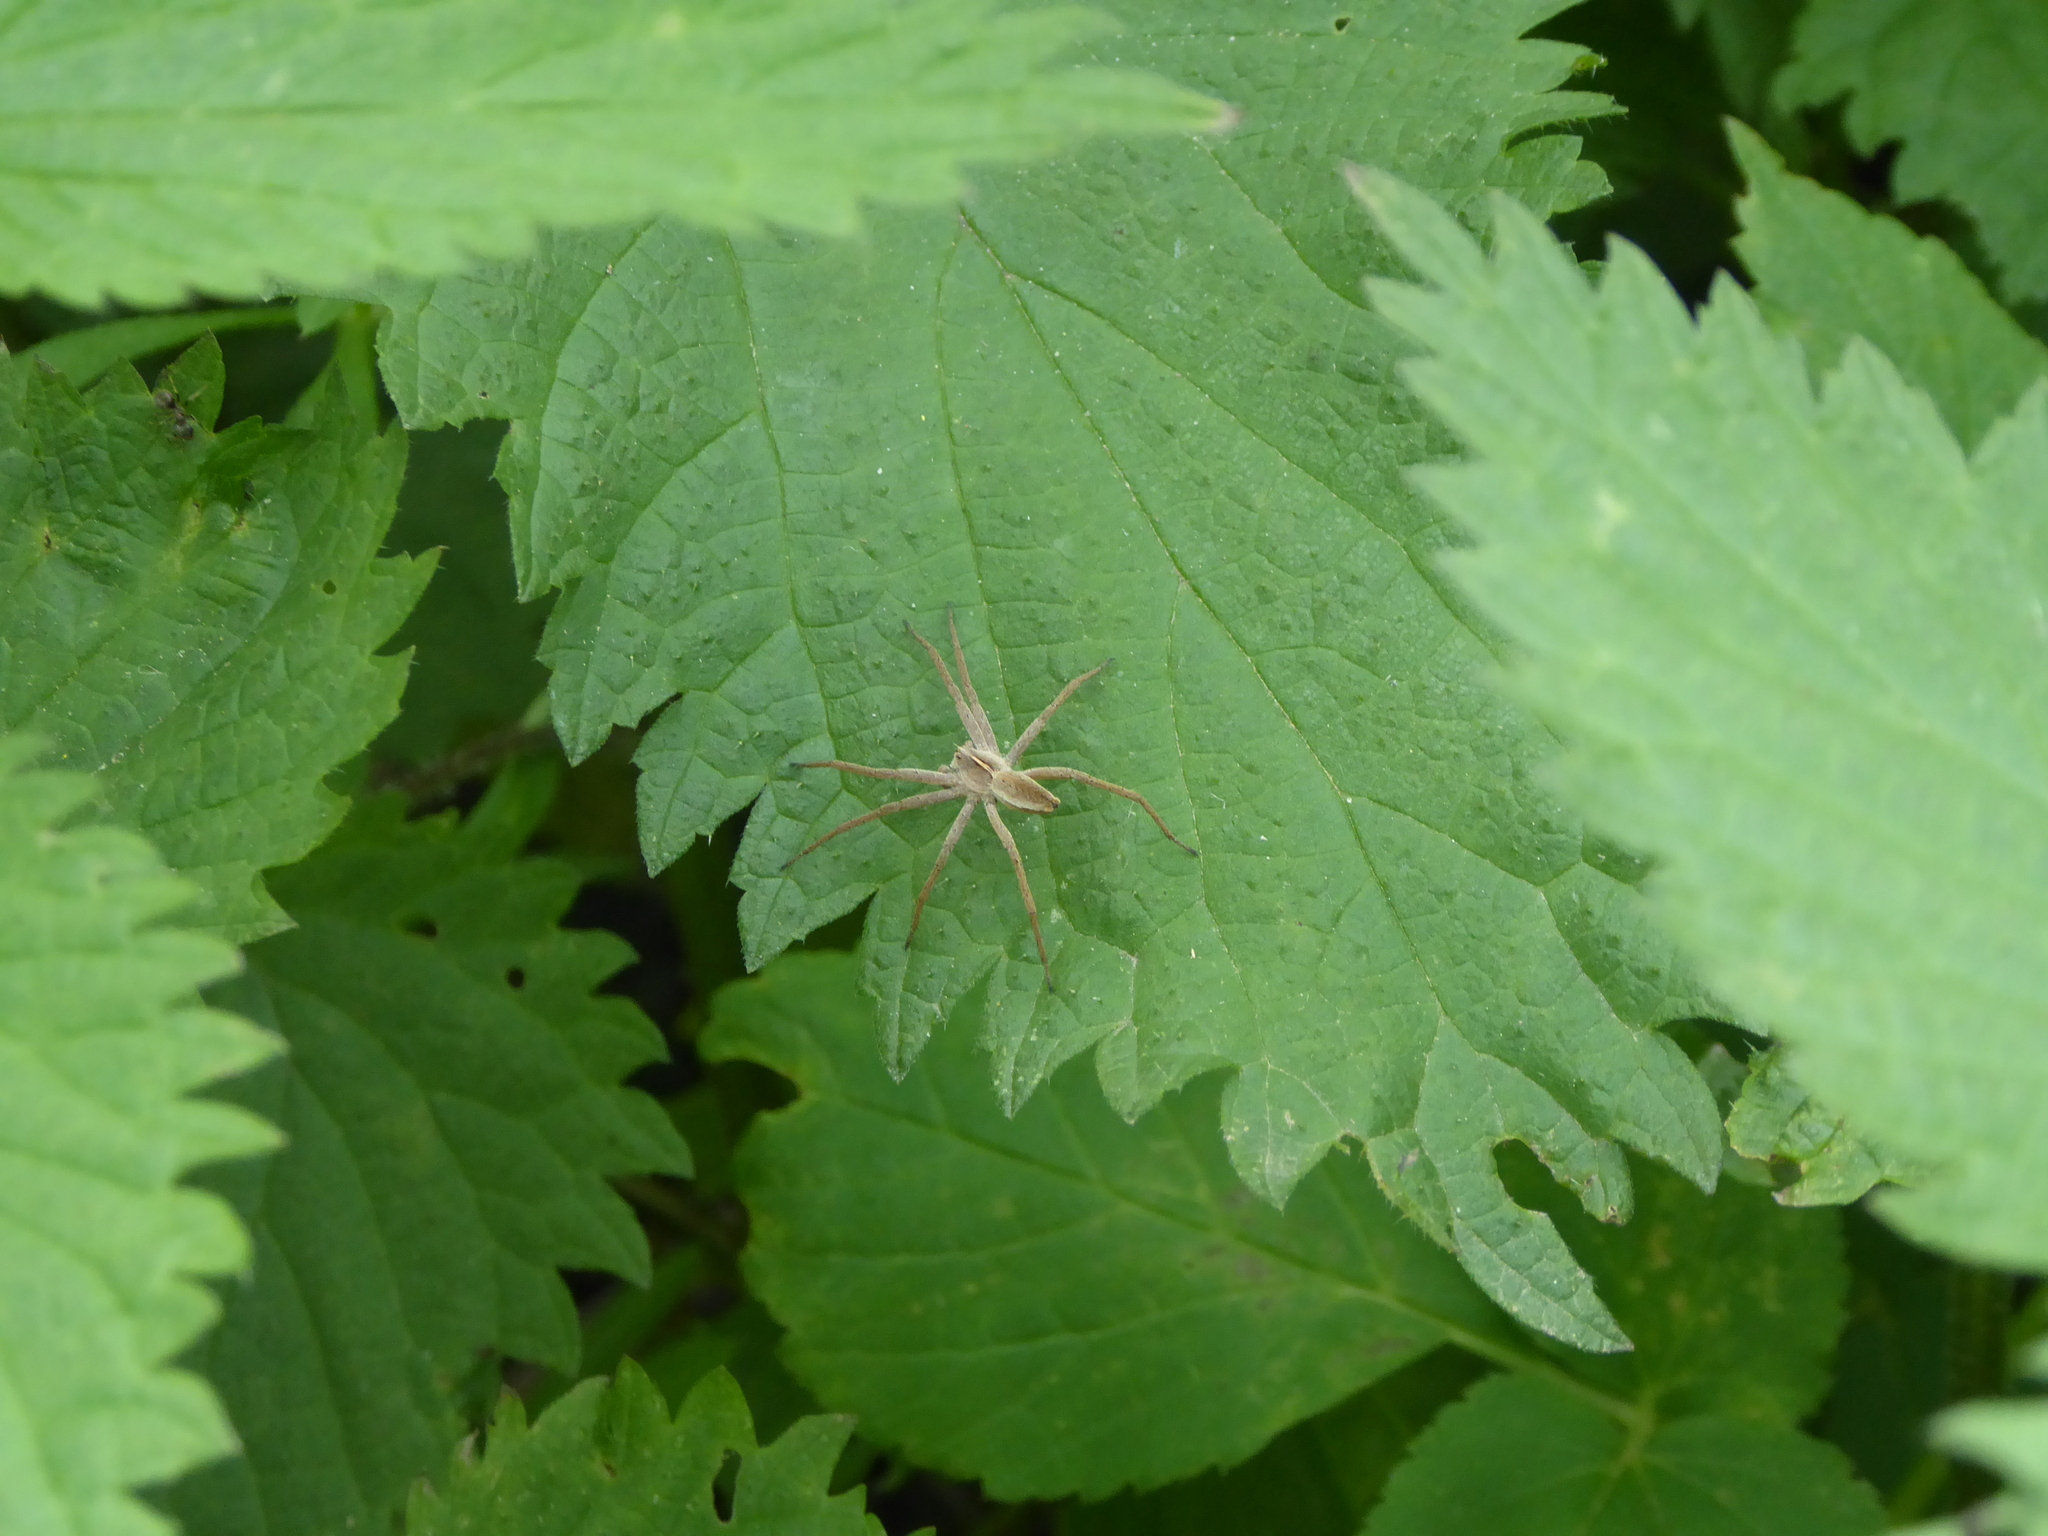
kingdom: Animalia
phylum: Arthropoda
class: Arachnida
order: Araneae
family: Pisauridae
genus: Pisaura
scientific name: Pisaura mirabilis
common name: Tent spider
